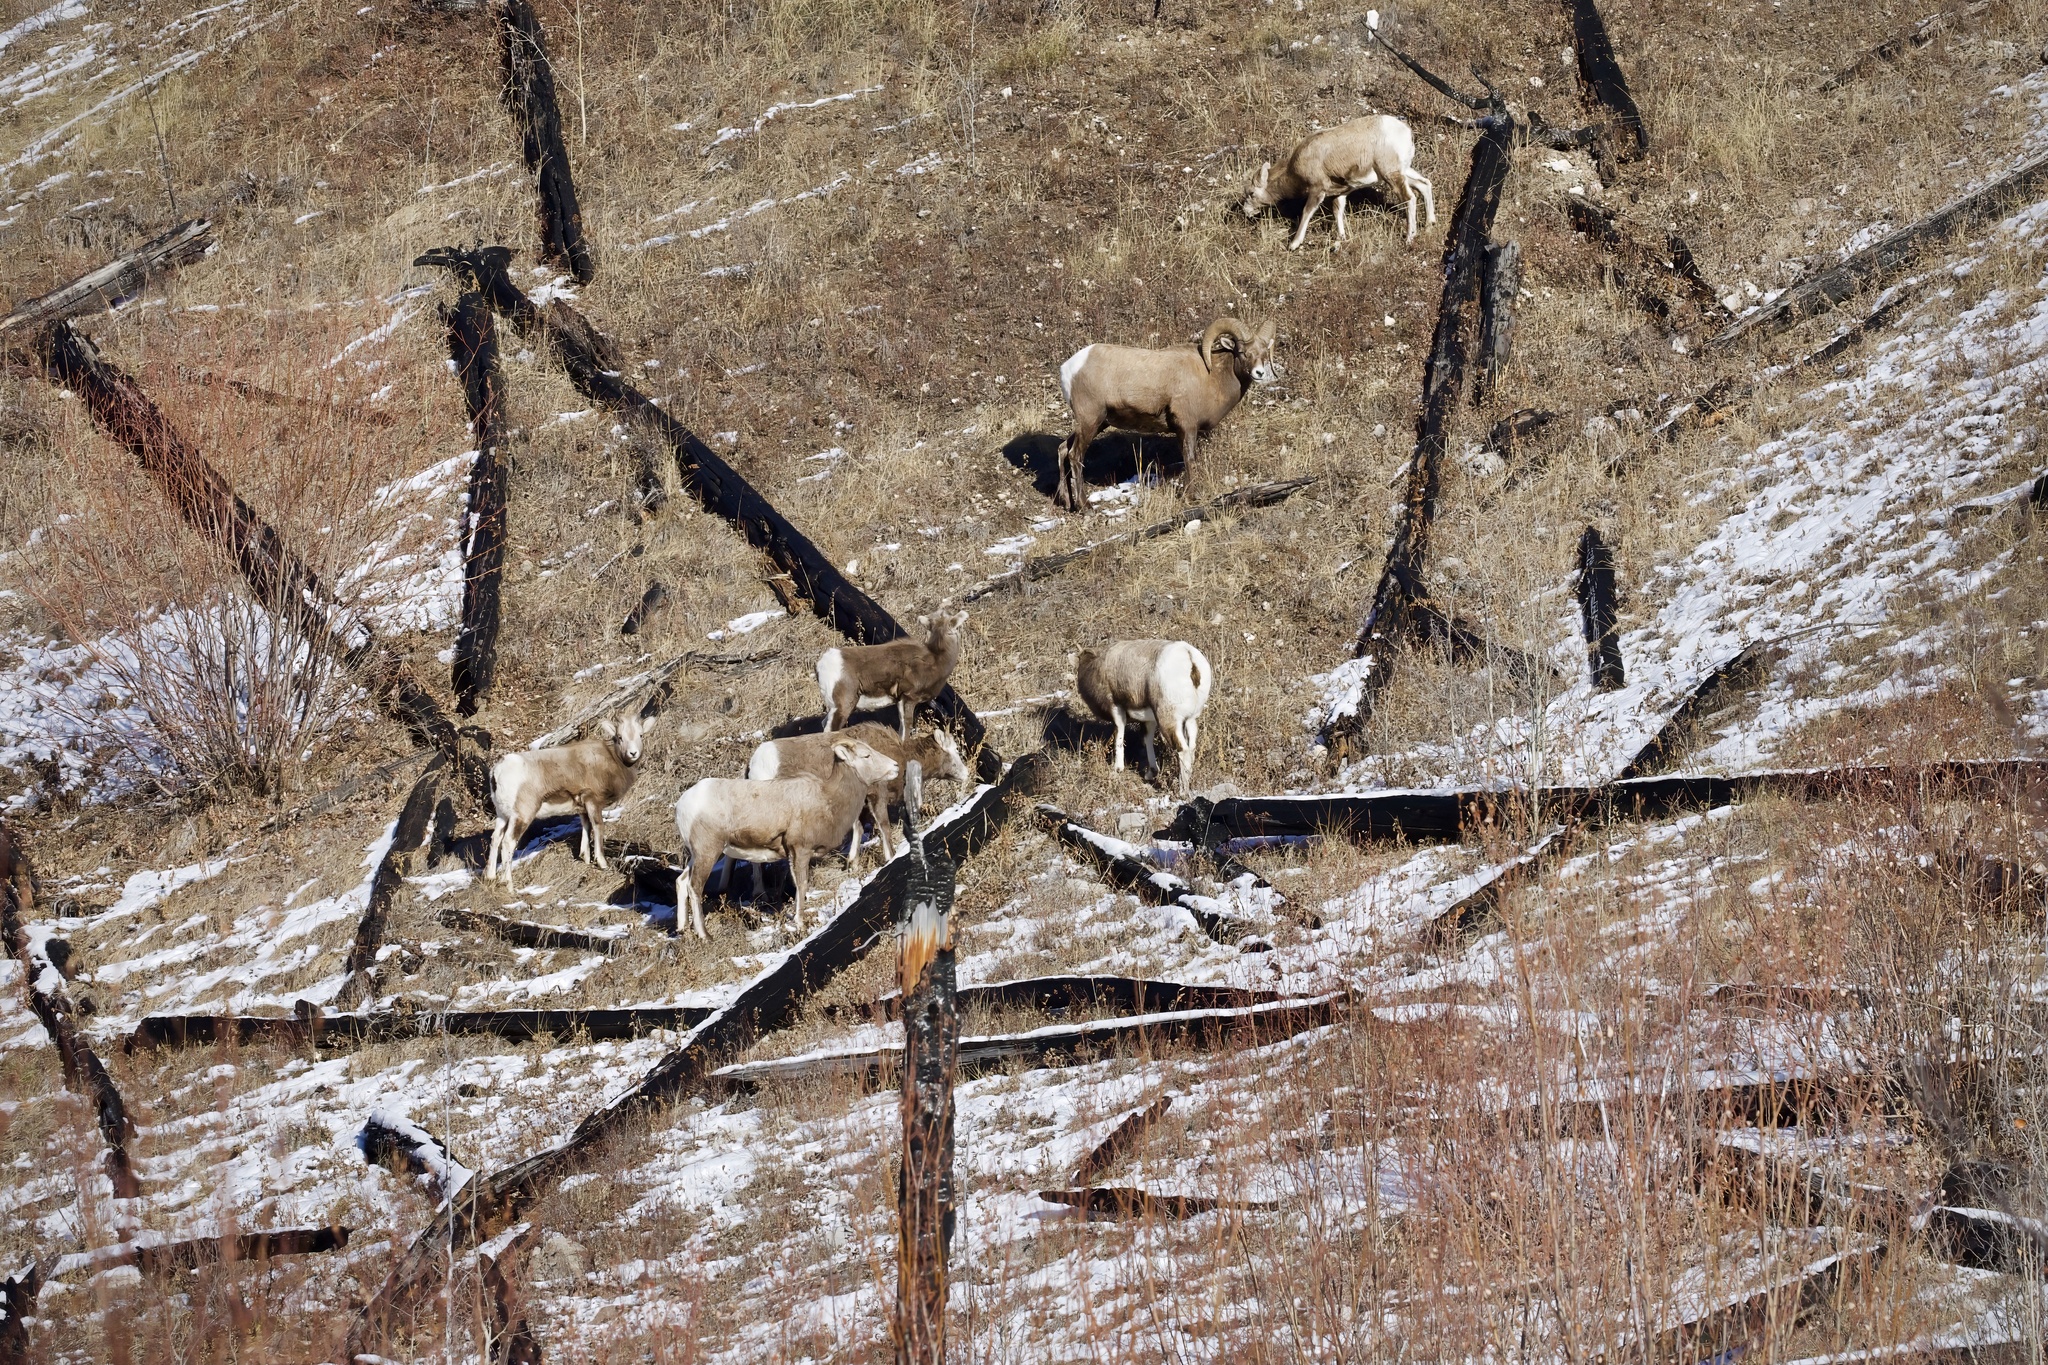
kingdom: Animalia
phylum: Chordata
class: Mammalia
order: Artiodactyla
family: Bovidae
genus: Ovis
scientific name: Ovis canadensis
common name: Bighorn sheep
